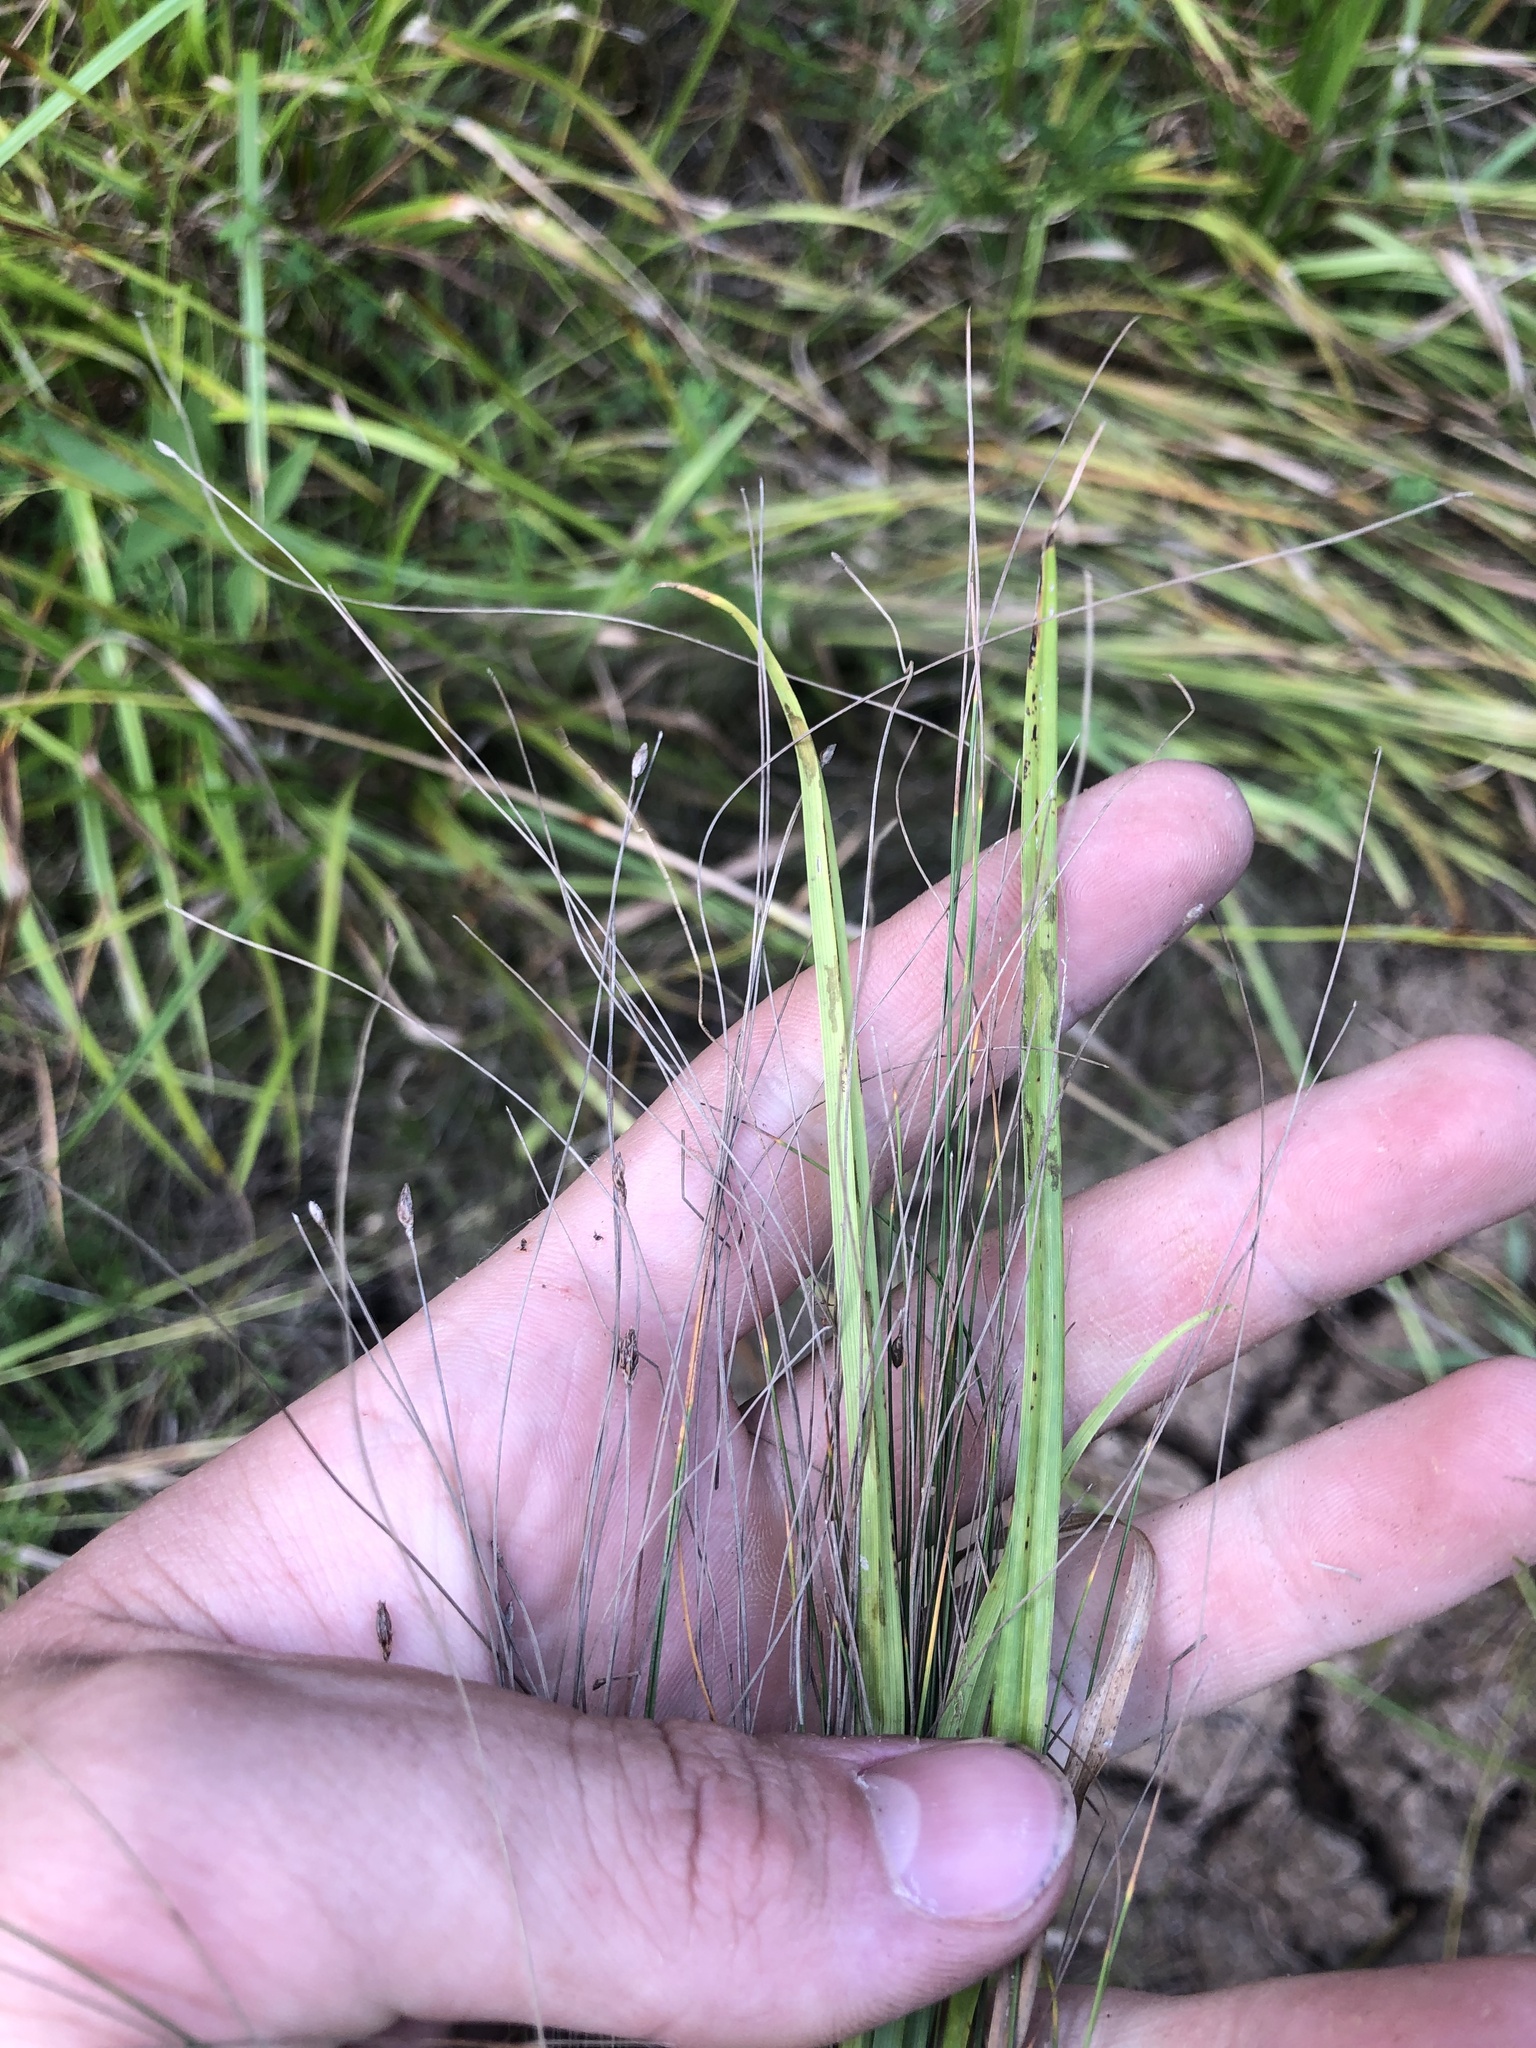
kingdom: Plantae
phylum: Tracheophyta
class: Liliopsida
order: Poales
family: Cyperaceae
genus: Eleocharis
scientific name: Eleocharis tenuis
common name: Dog's hair
